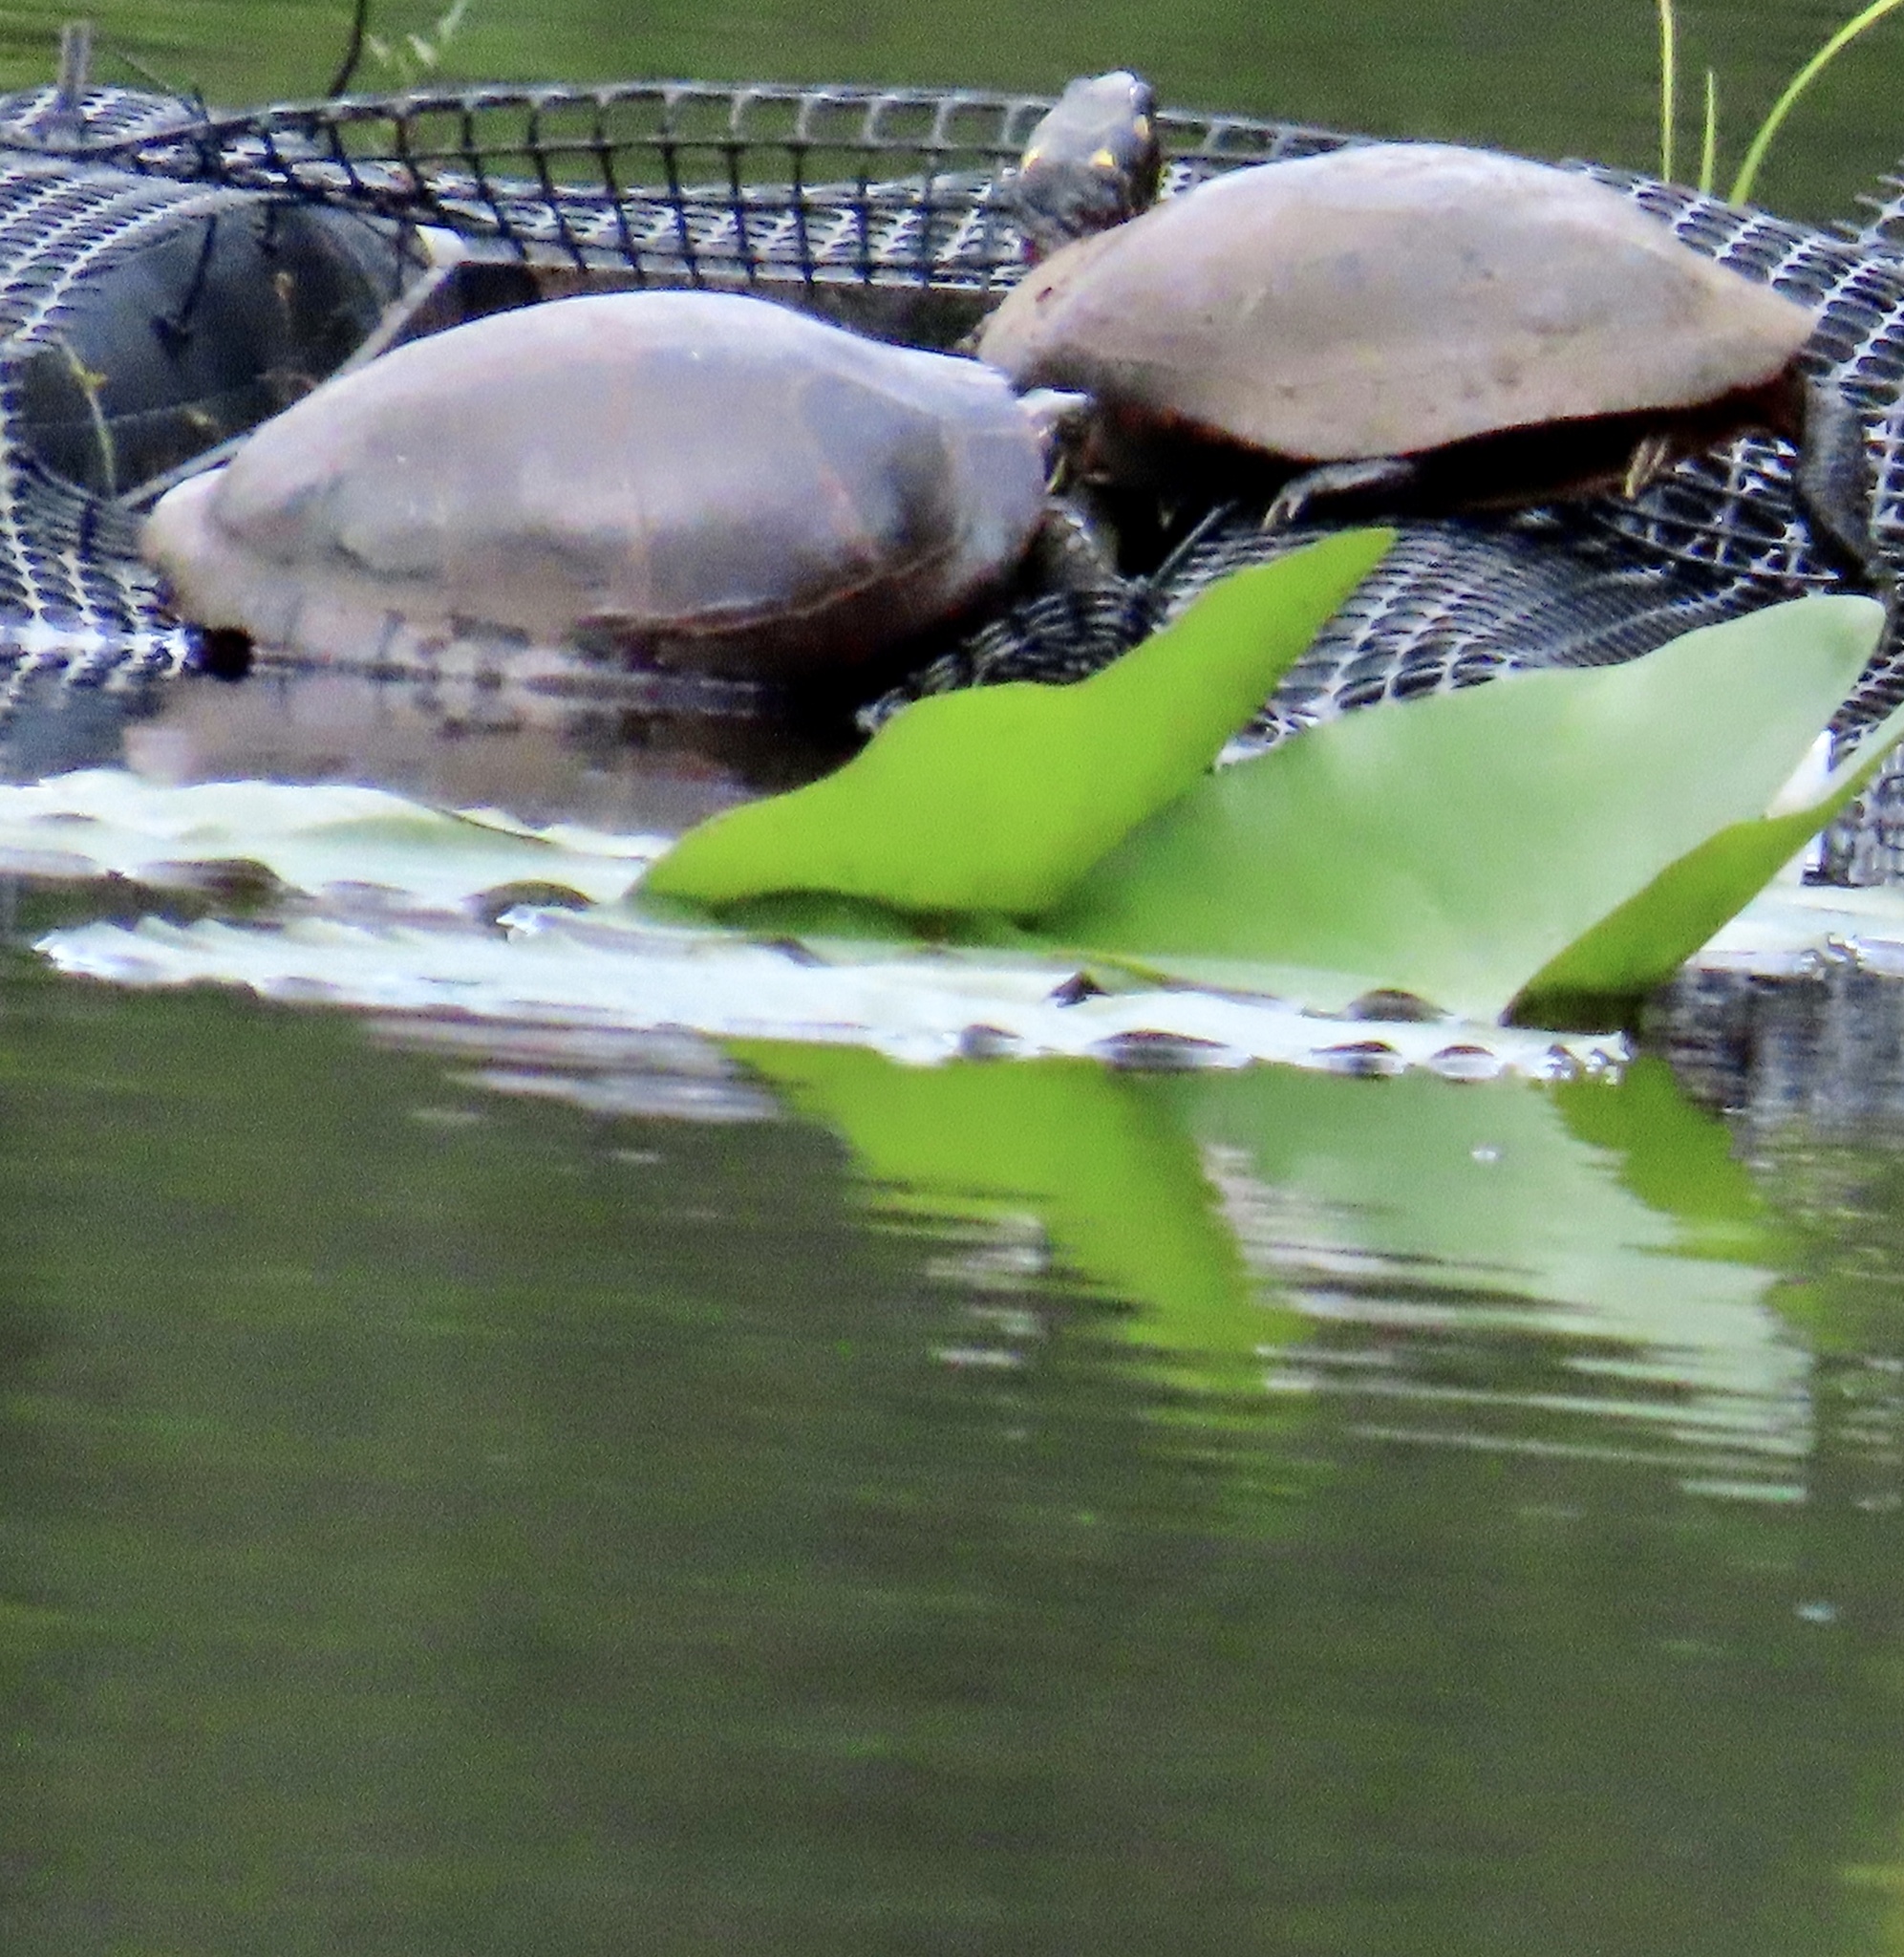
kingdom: Animalia
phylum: Chordata
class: Testudines
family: Emydidae
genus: Chrysemys
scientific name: Chrysemys picta
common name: Painted turtle
